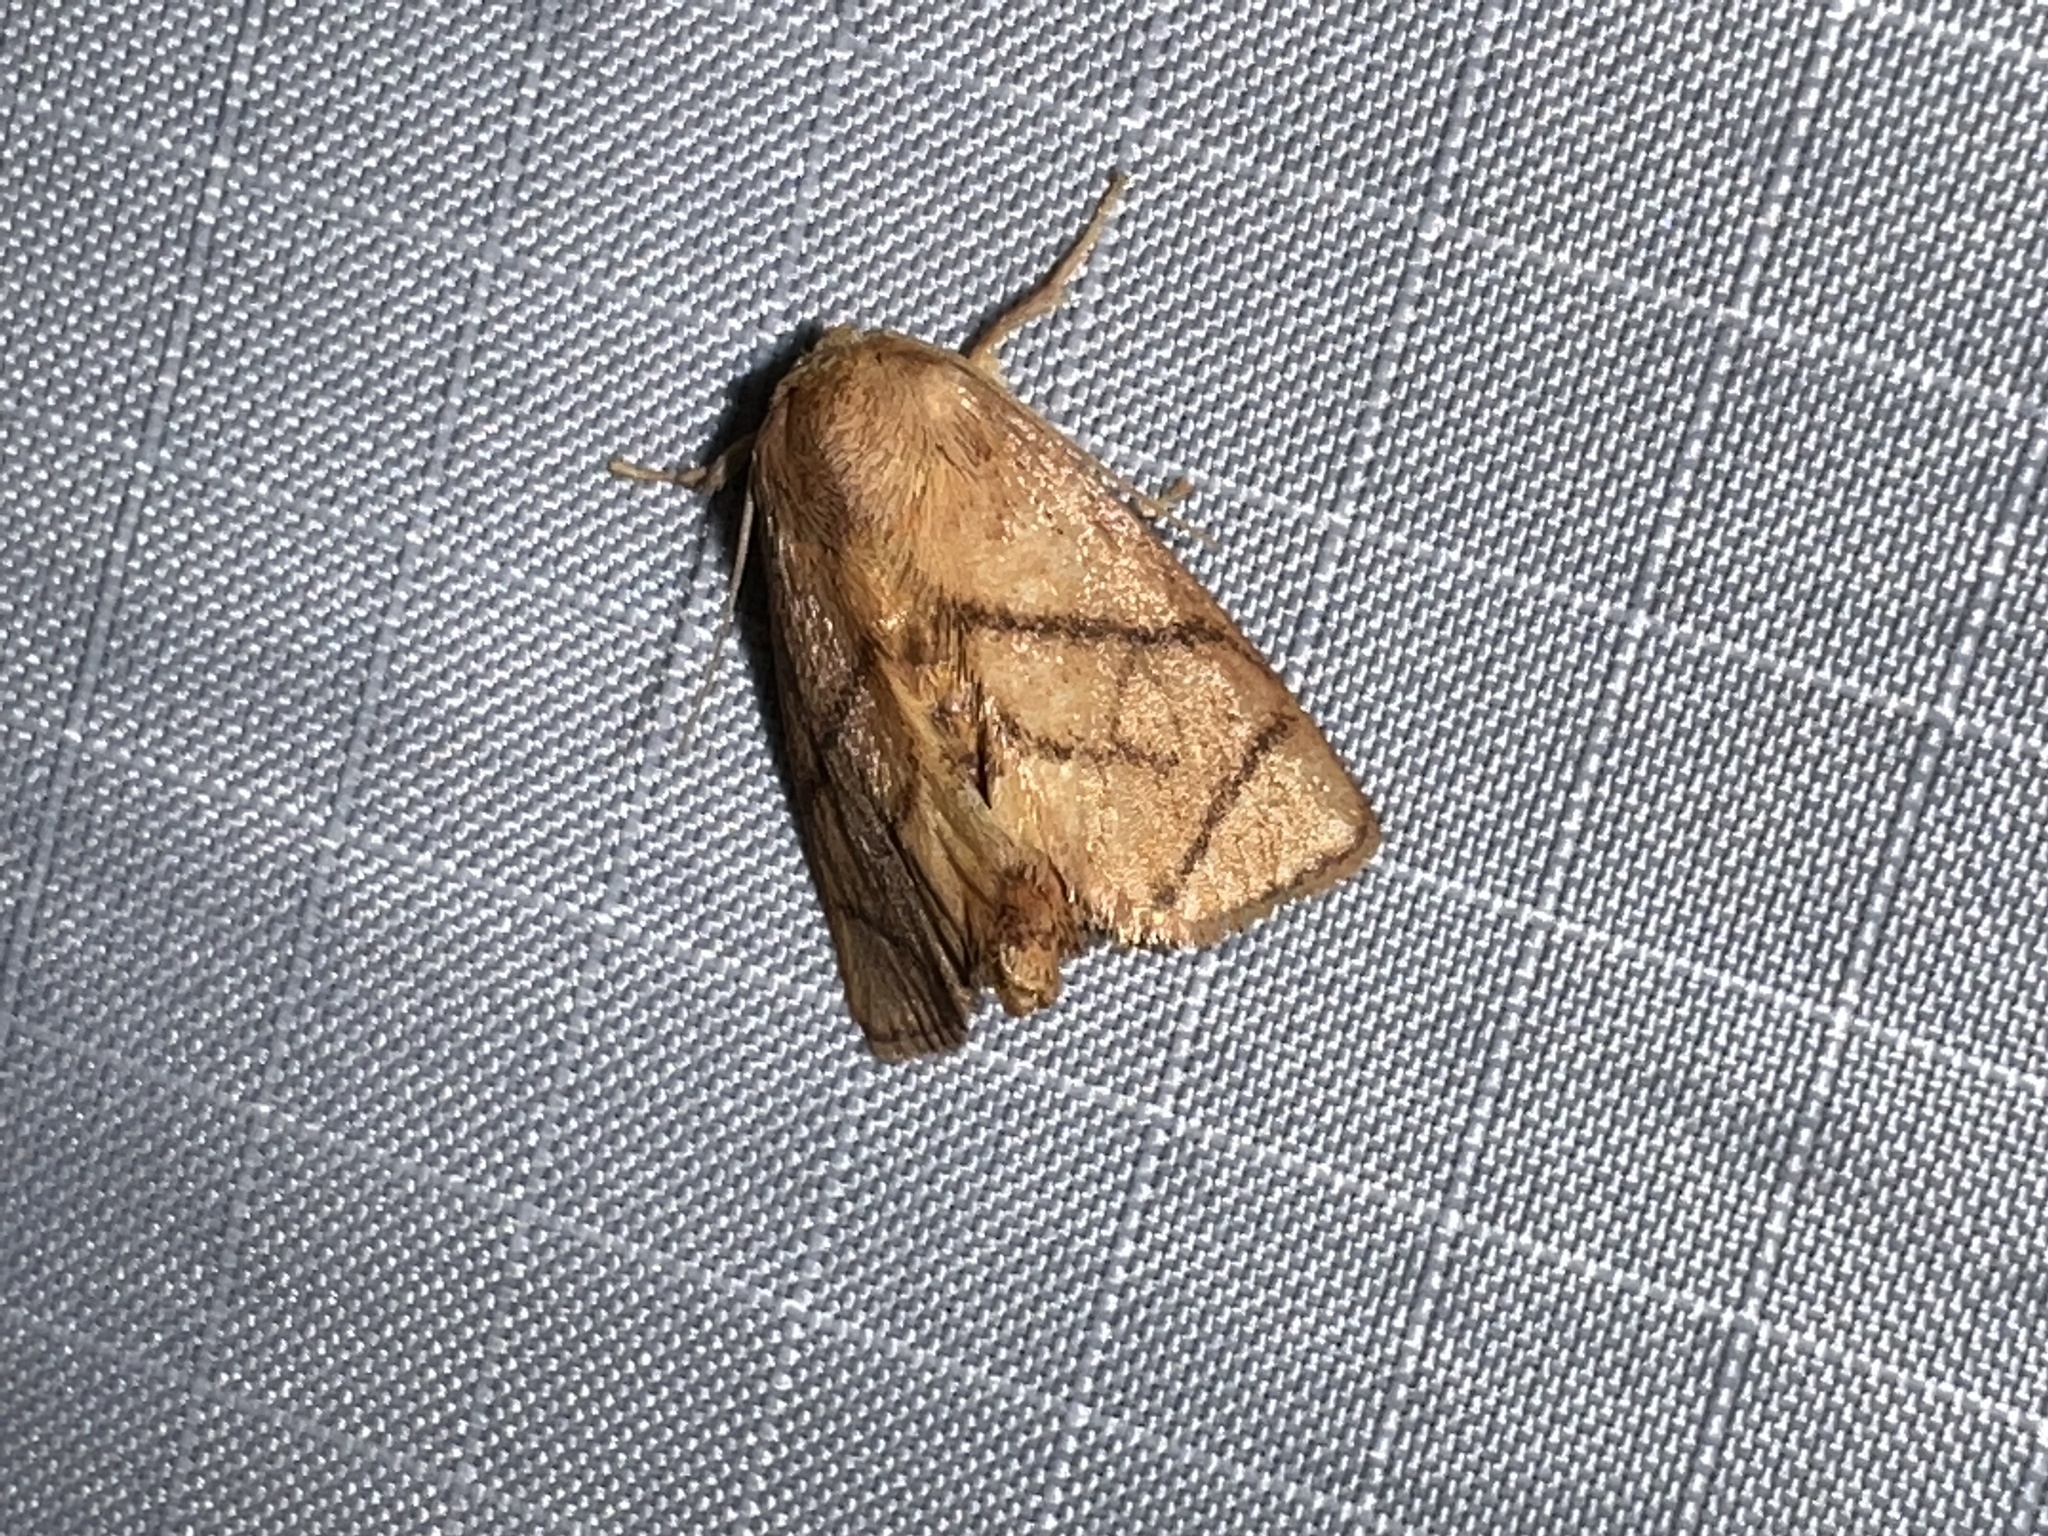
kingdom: Animalia
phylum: Arthropoda
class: Insecta
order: Lepidoptera
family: Limacodidae
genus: Apoda
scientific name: Apoda y-inversa
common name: Yellow-collared slug moth
